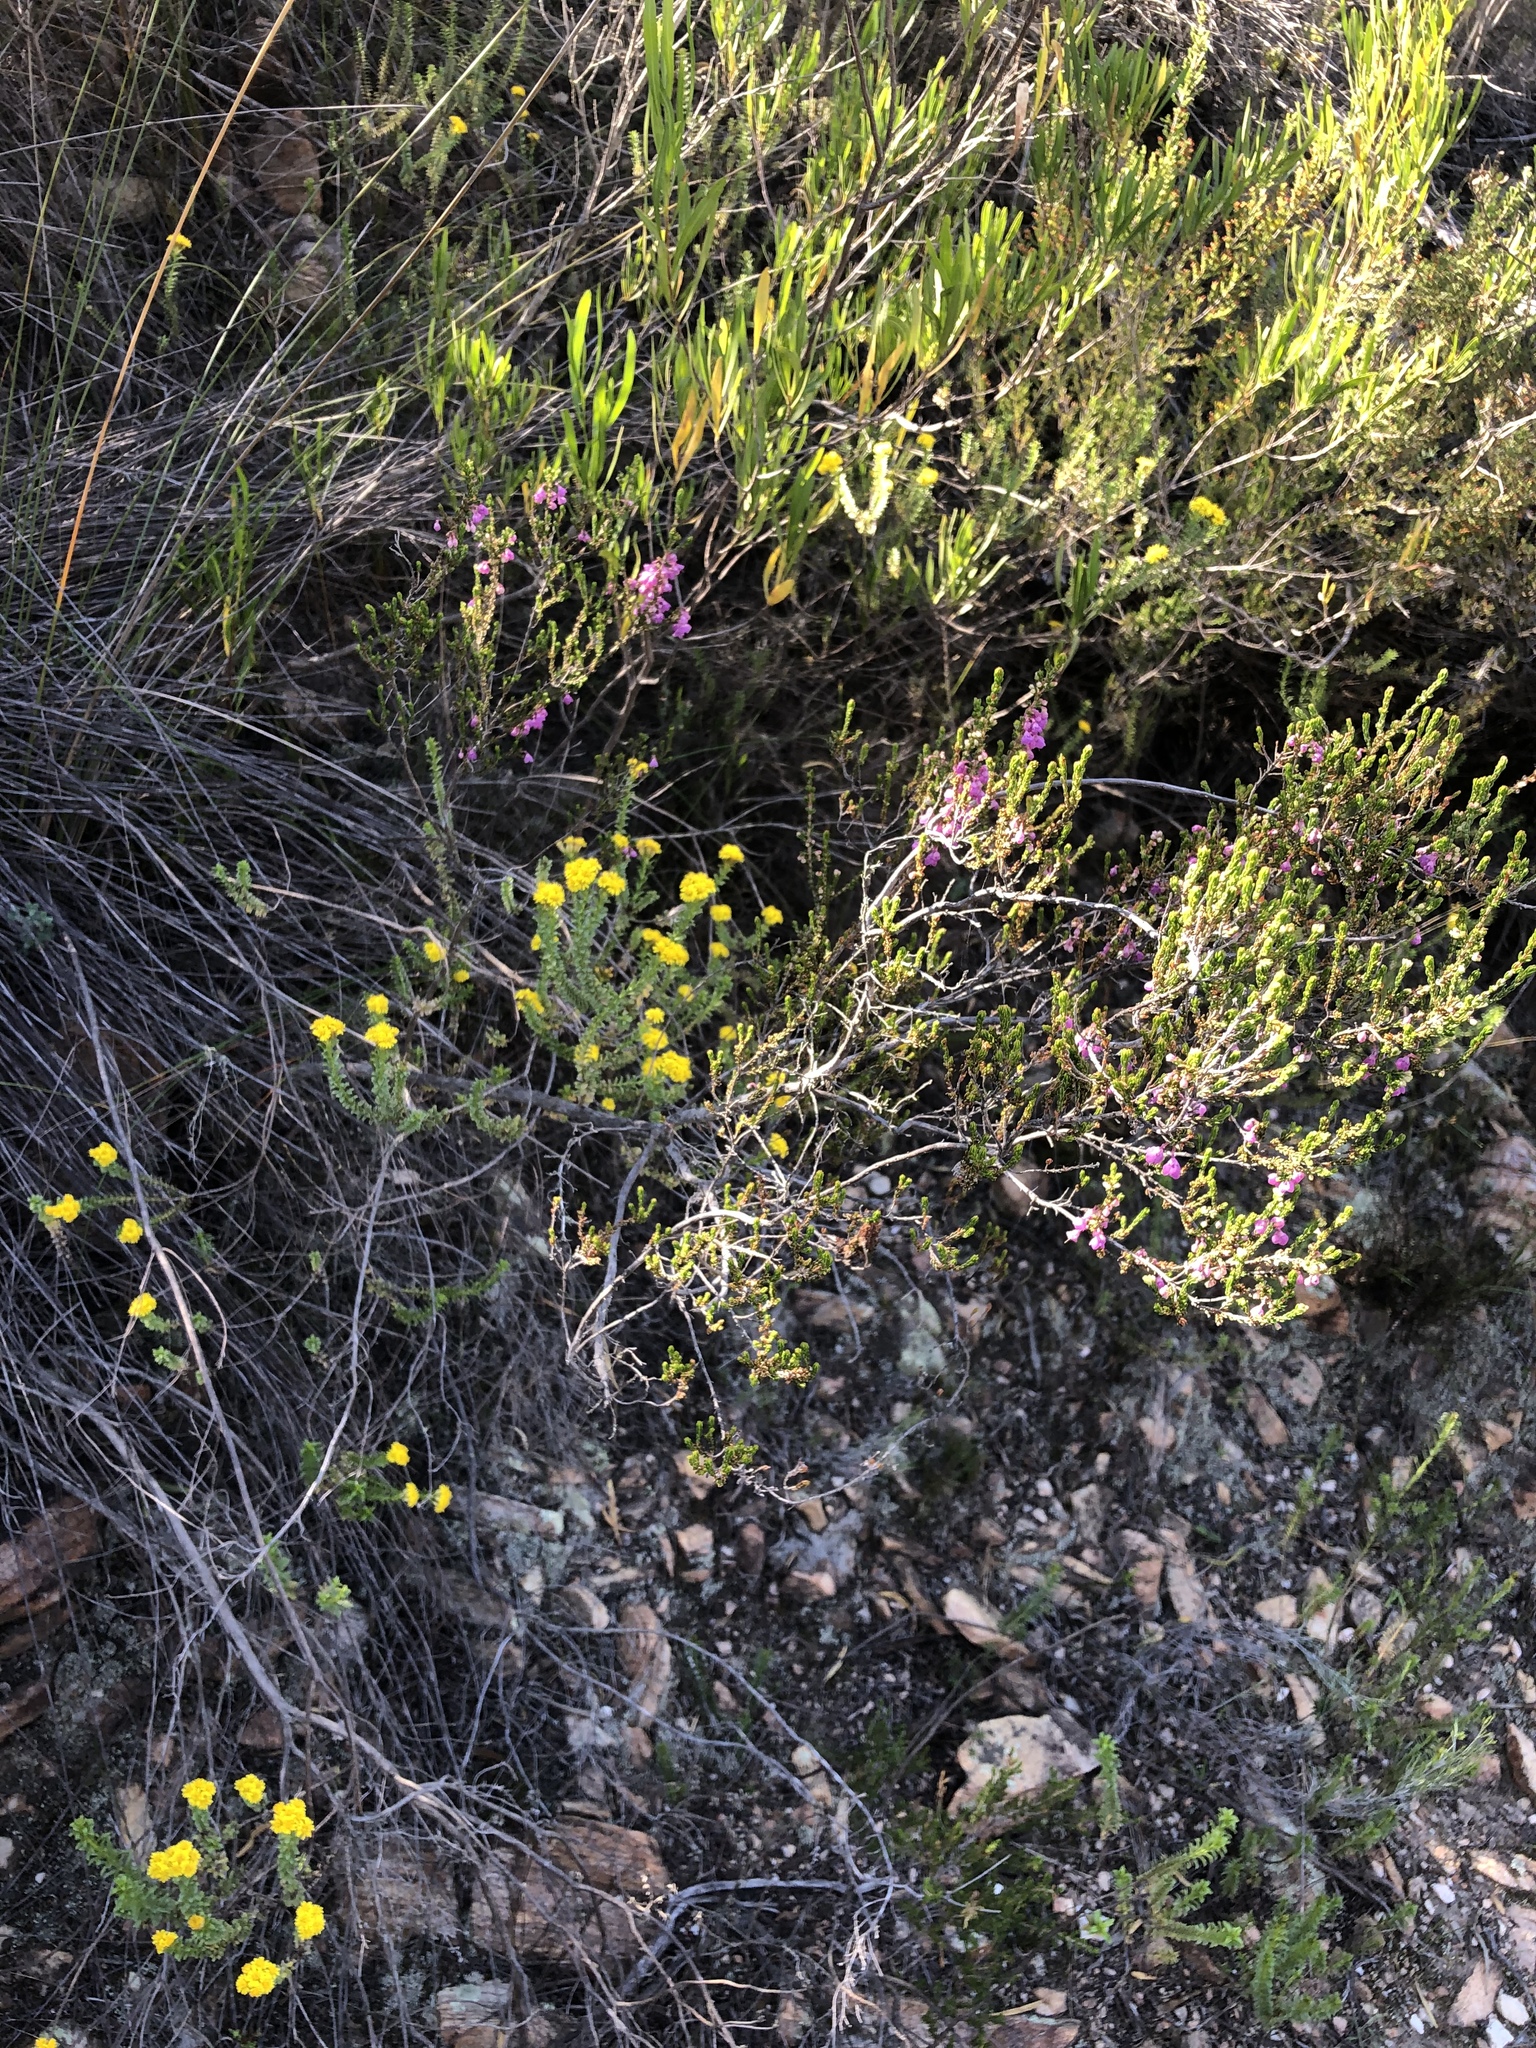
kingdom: Plantae
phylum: Tracheophyta
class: Magnoliopsida
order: Ericales
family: Ericaceae
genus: Erica
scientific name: Erica melanthera
